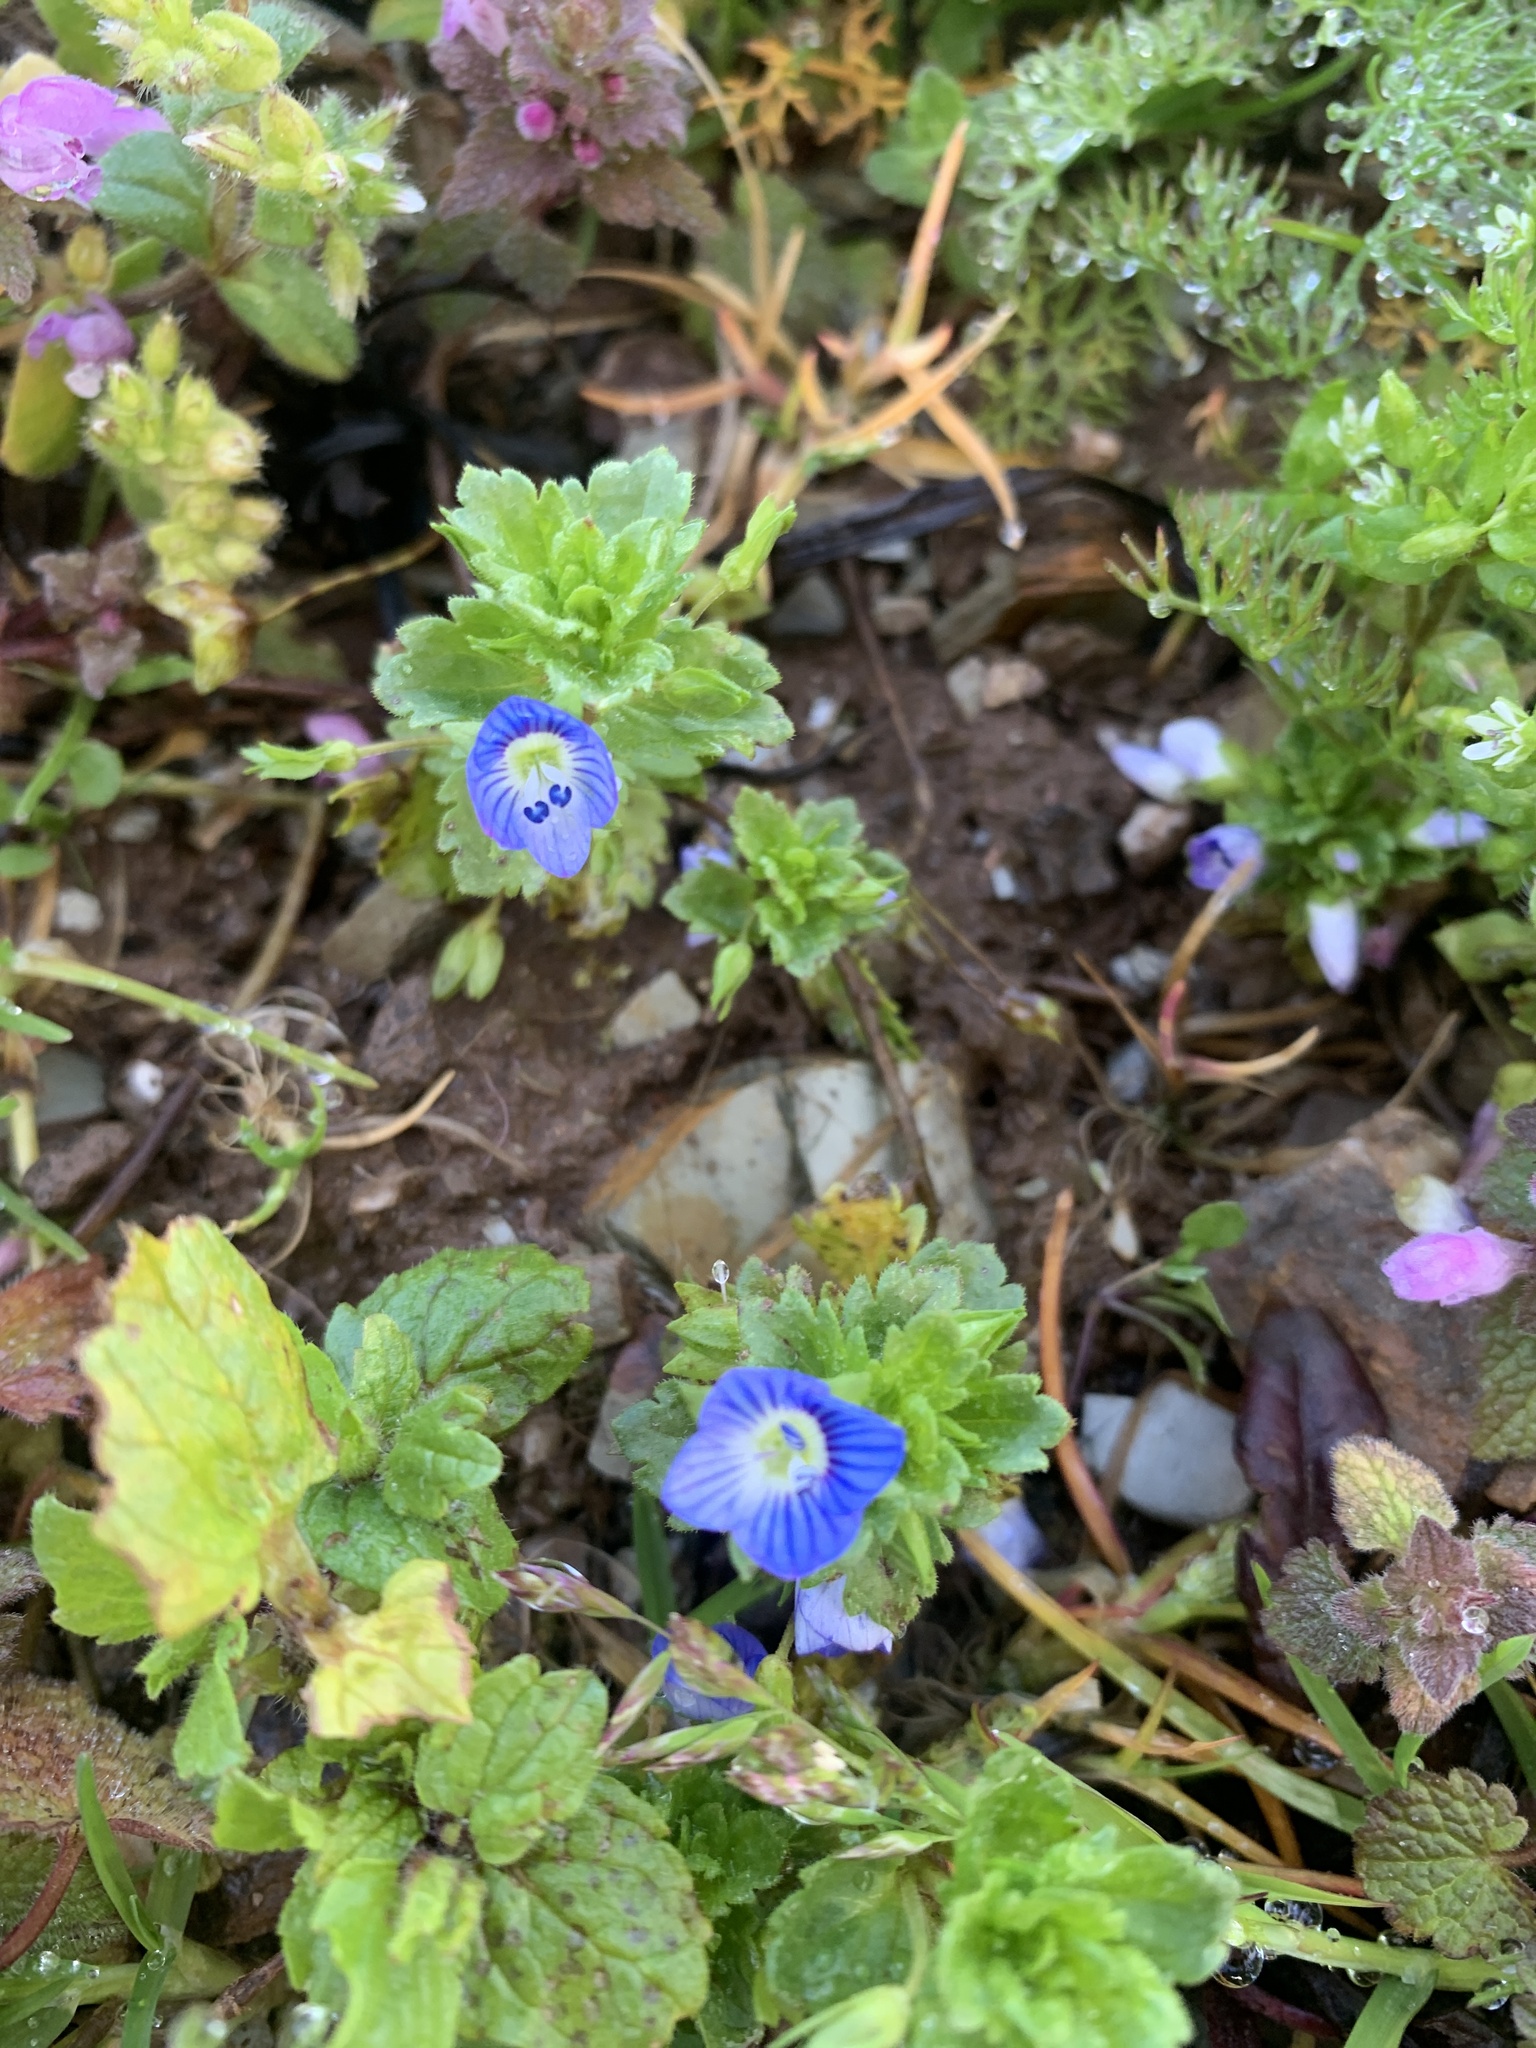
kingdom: Plantae
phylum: Tracheophyta
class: Magnoliopsida
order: Lamiales
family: Plantaginaceae
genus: Veronica
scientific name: Veronica persica
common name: Common field-speedwell
